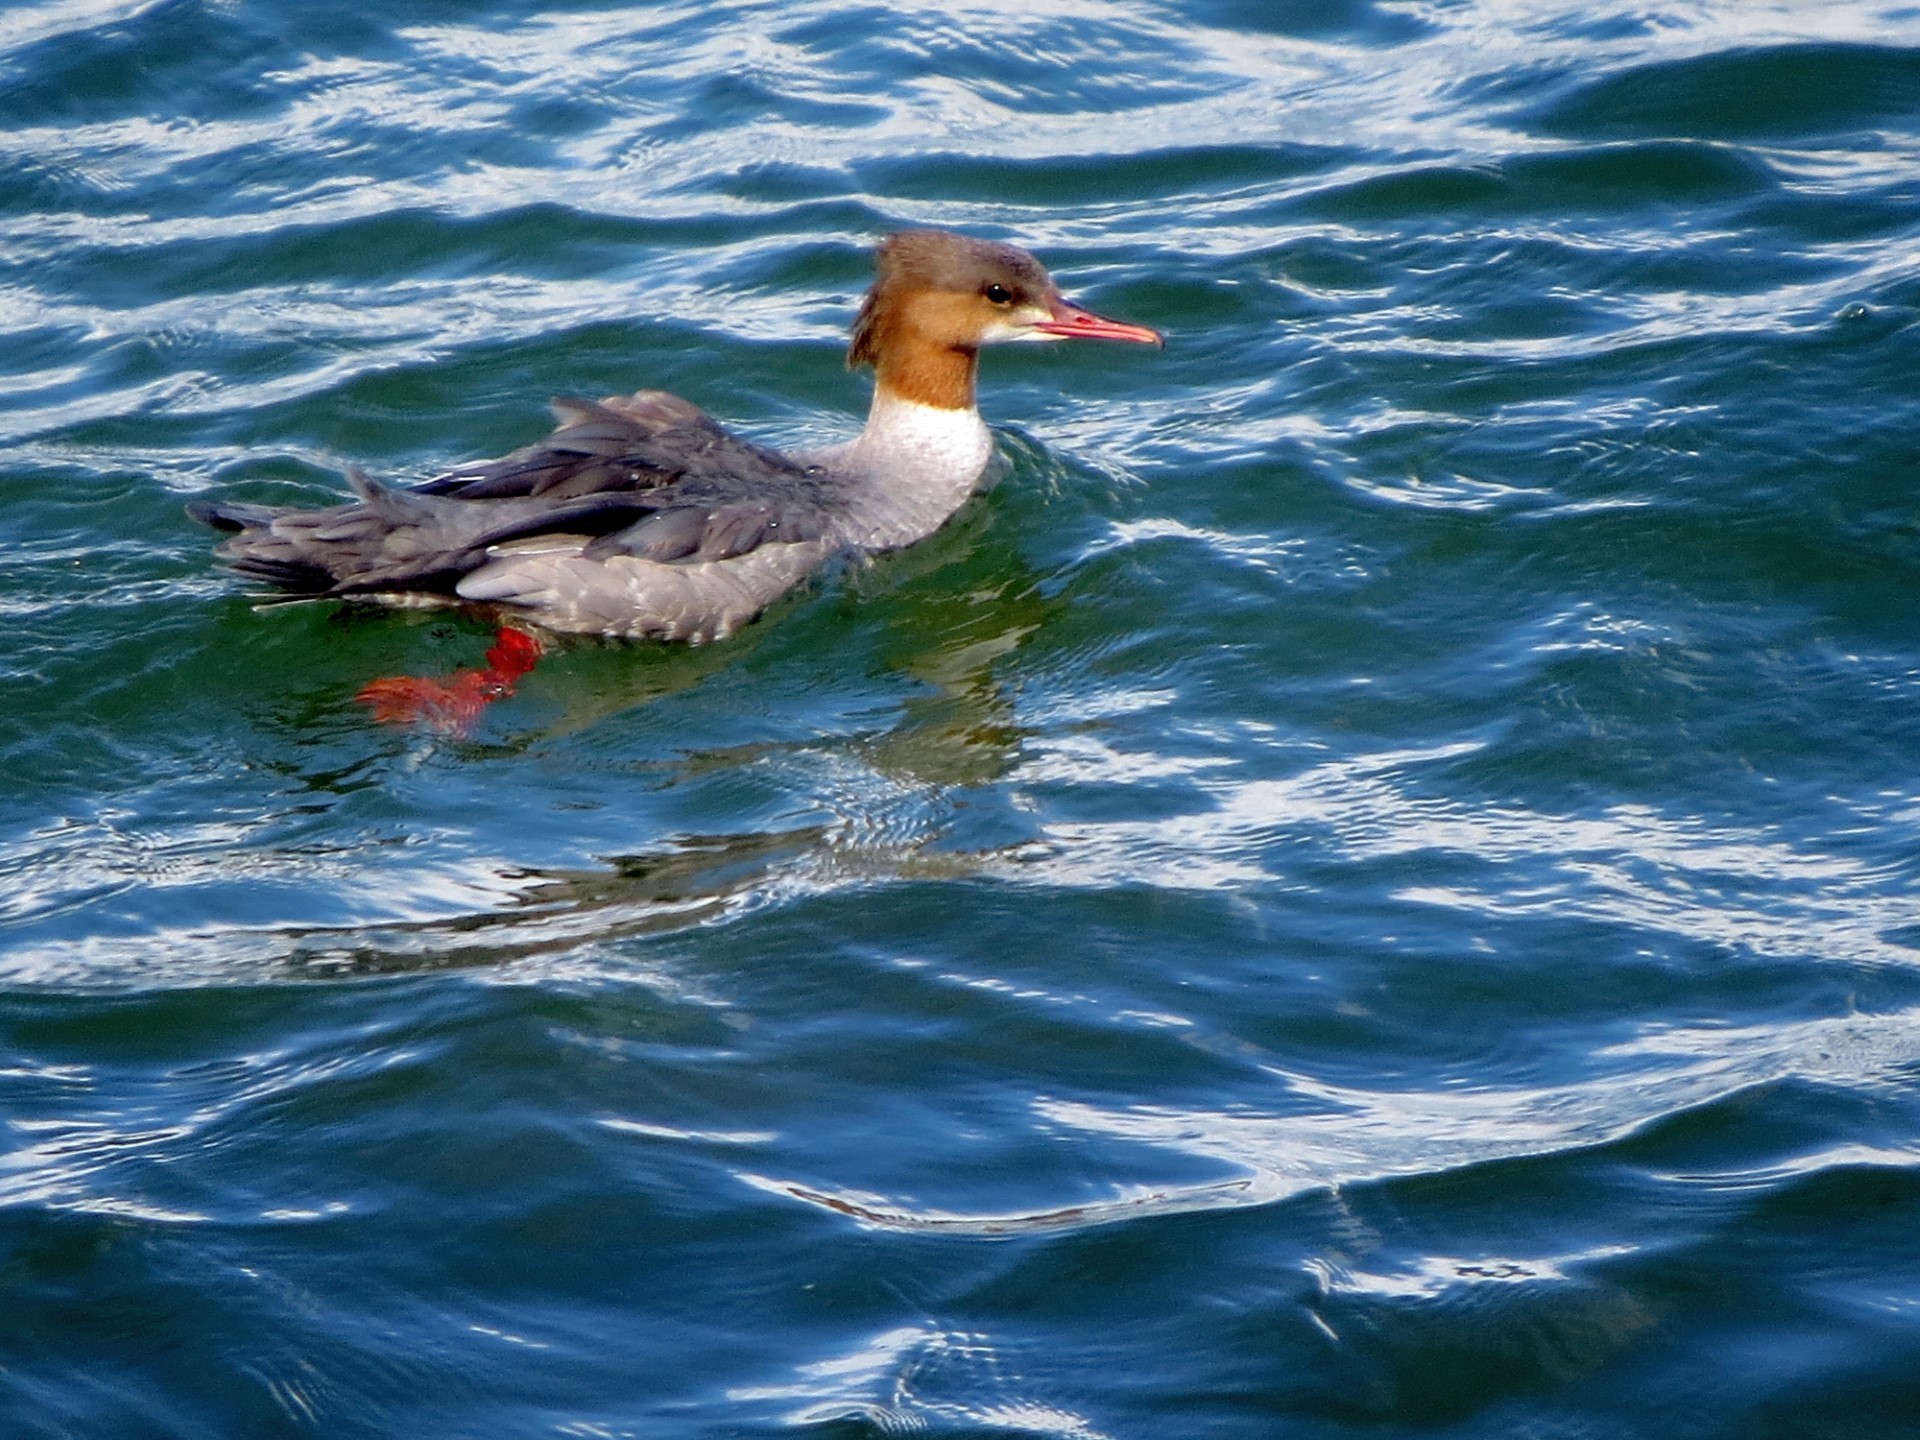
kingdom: Animalia
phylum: Chordata
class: Aves
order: Anseriformes
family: Anatidae
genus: Mergus
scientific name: Mergus merganser
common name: Common merganser
